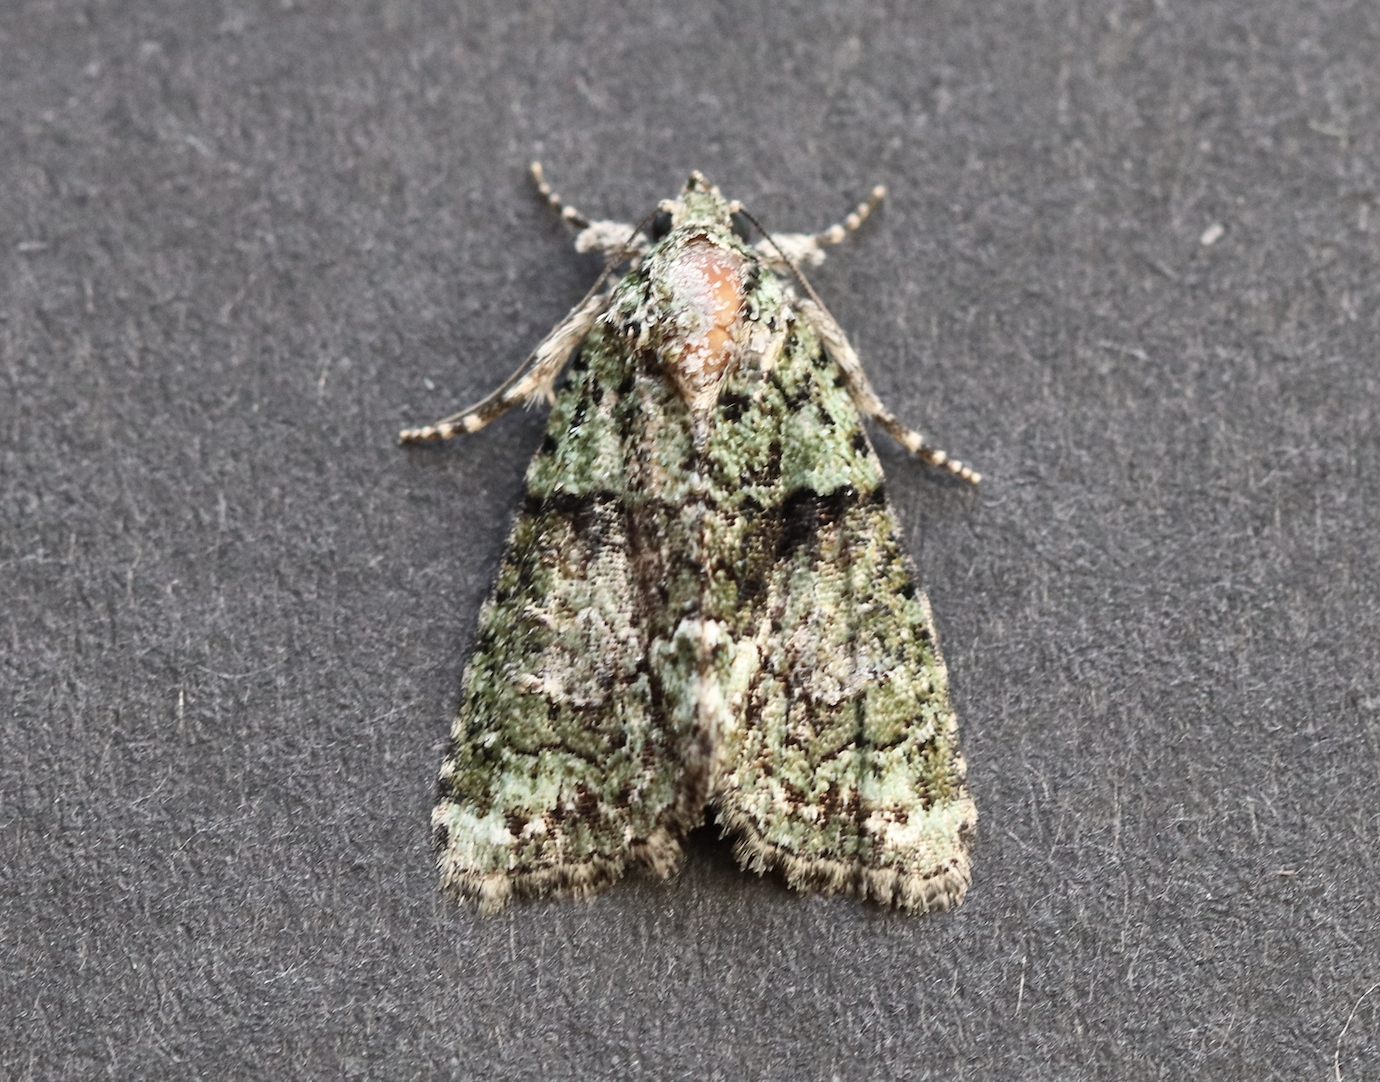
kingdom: Animalia
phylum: Arthropoda
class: Insecta
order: Lepidoptera
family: Noctuidae
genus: Cryphia
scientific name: Cryphia algae
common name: Tree-lichen beauty
